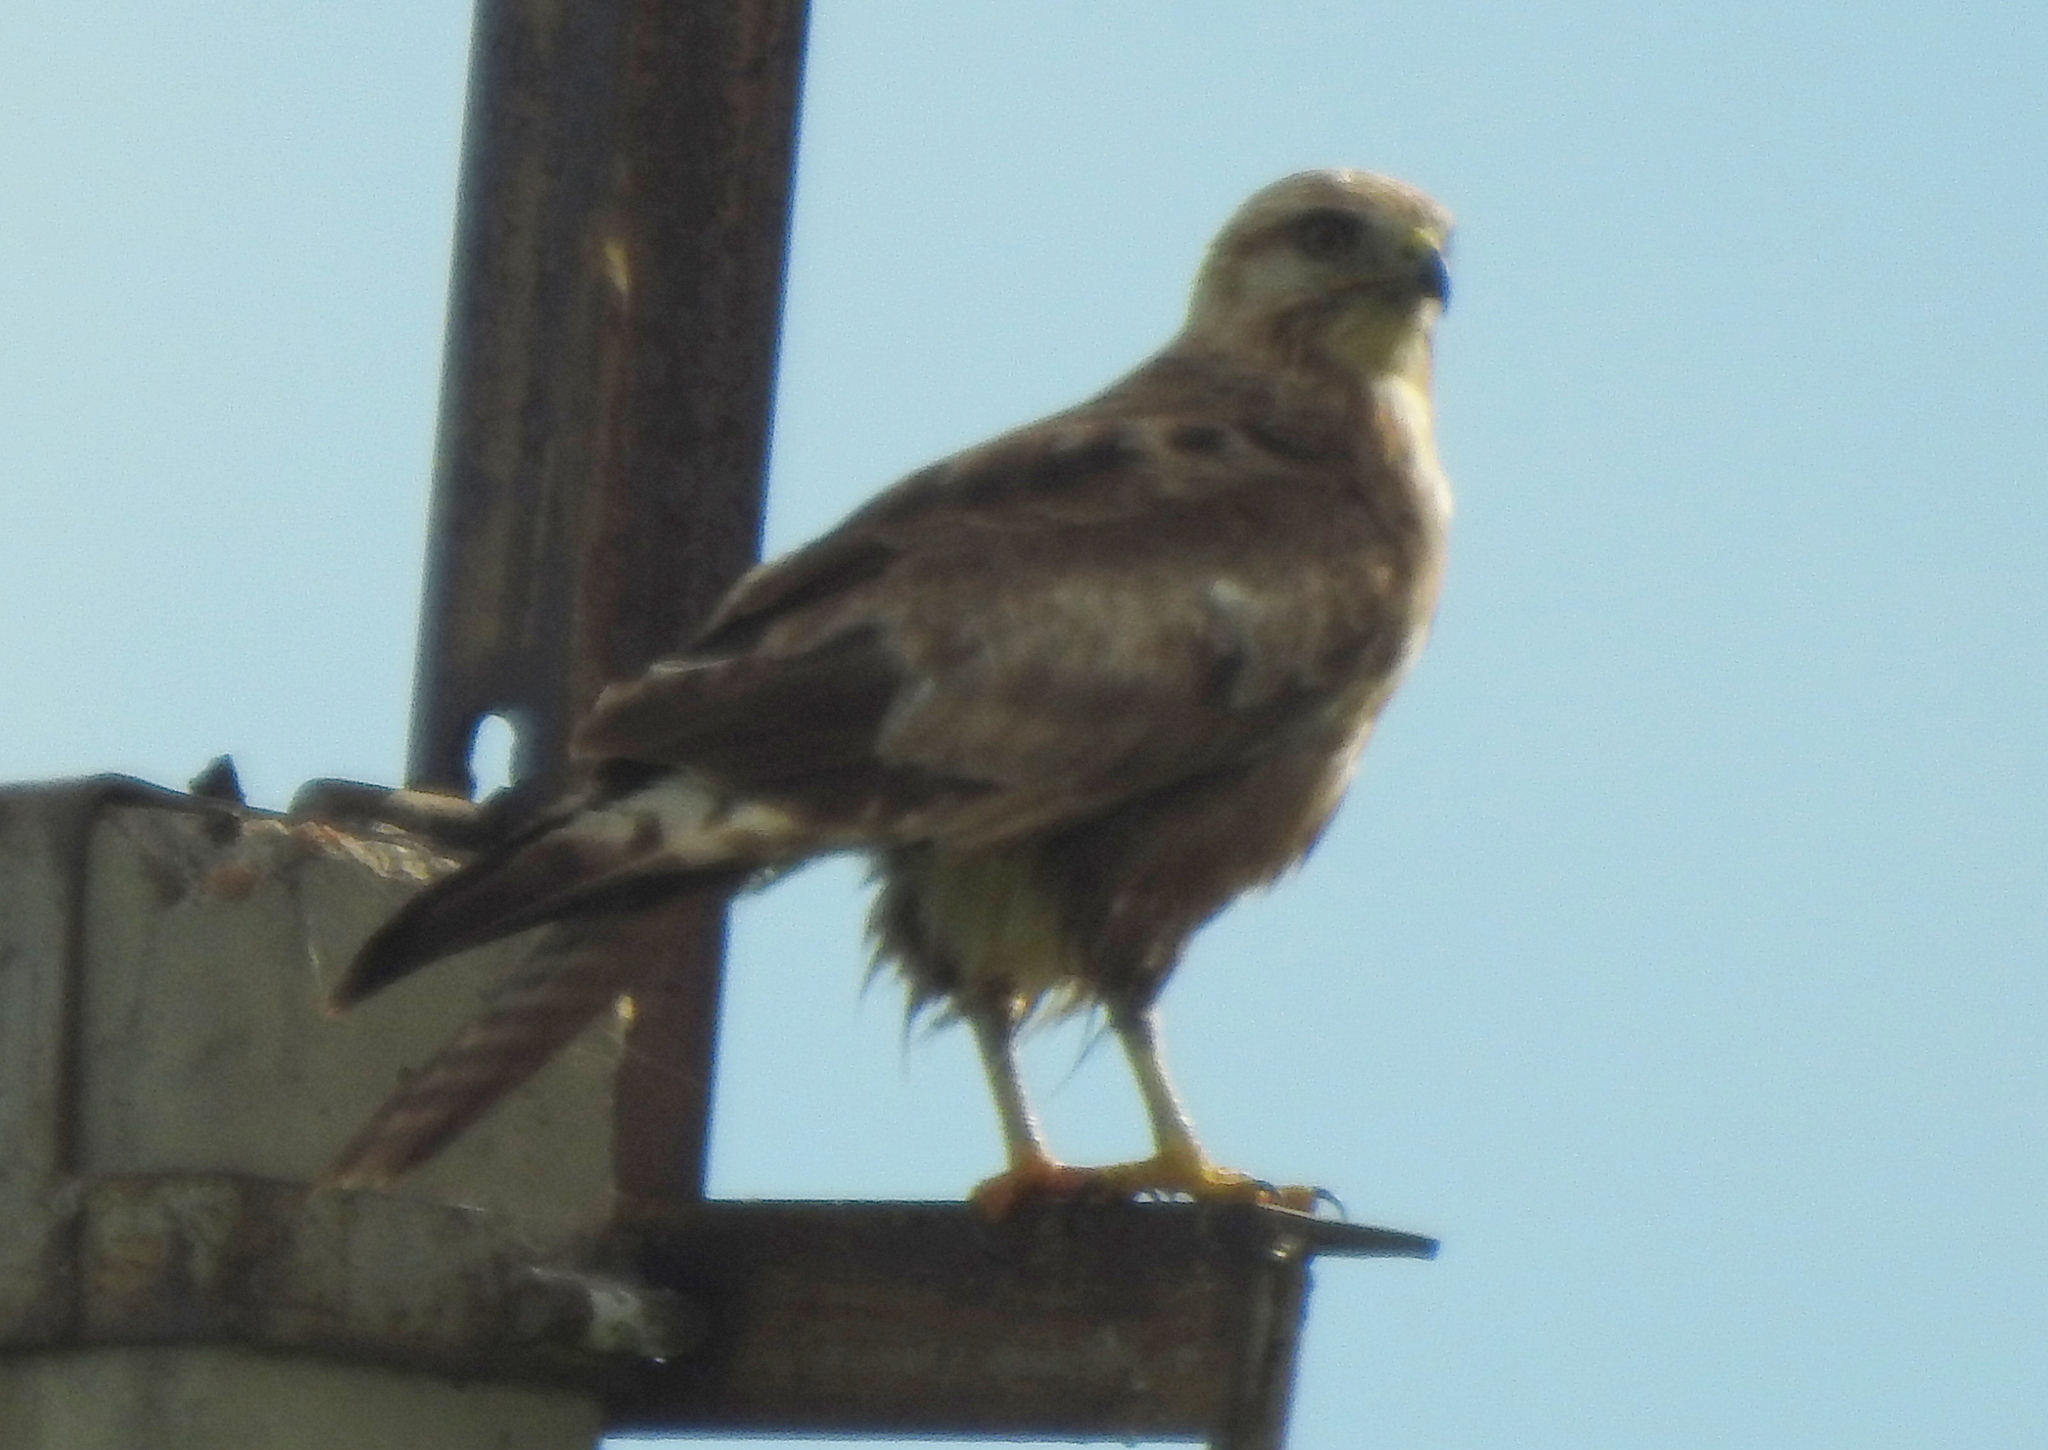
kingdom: Animalia
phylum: Chordata
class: Aves
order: Accipitriformes
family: Accipitridae
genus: Buteo
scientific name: Buteo japonicus
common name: Eastern buzzard
